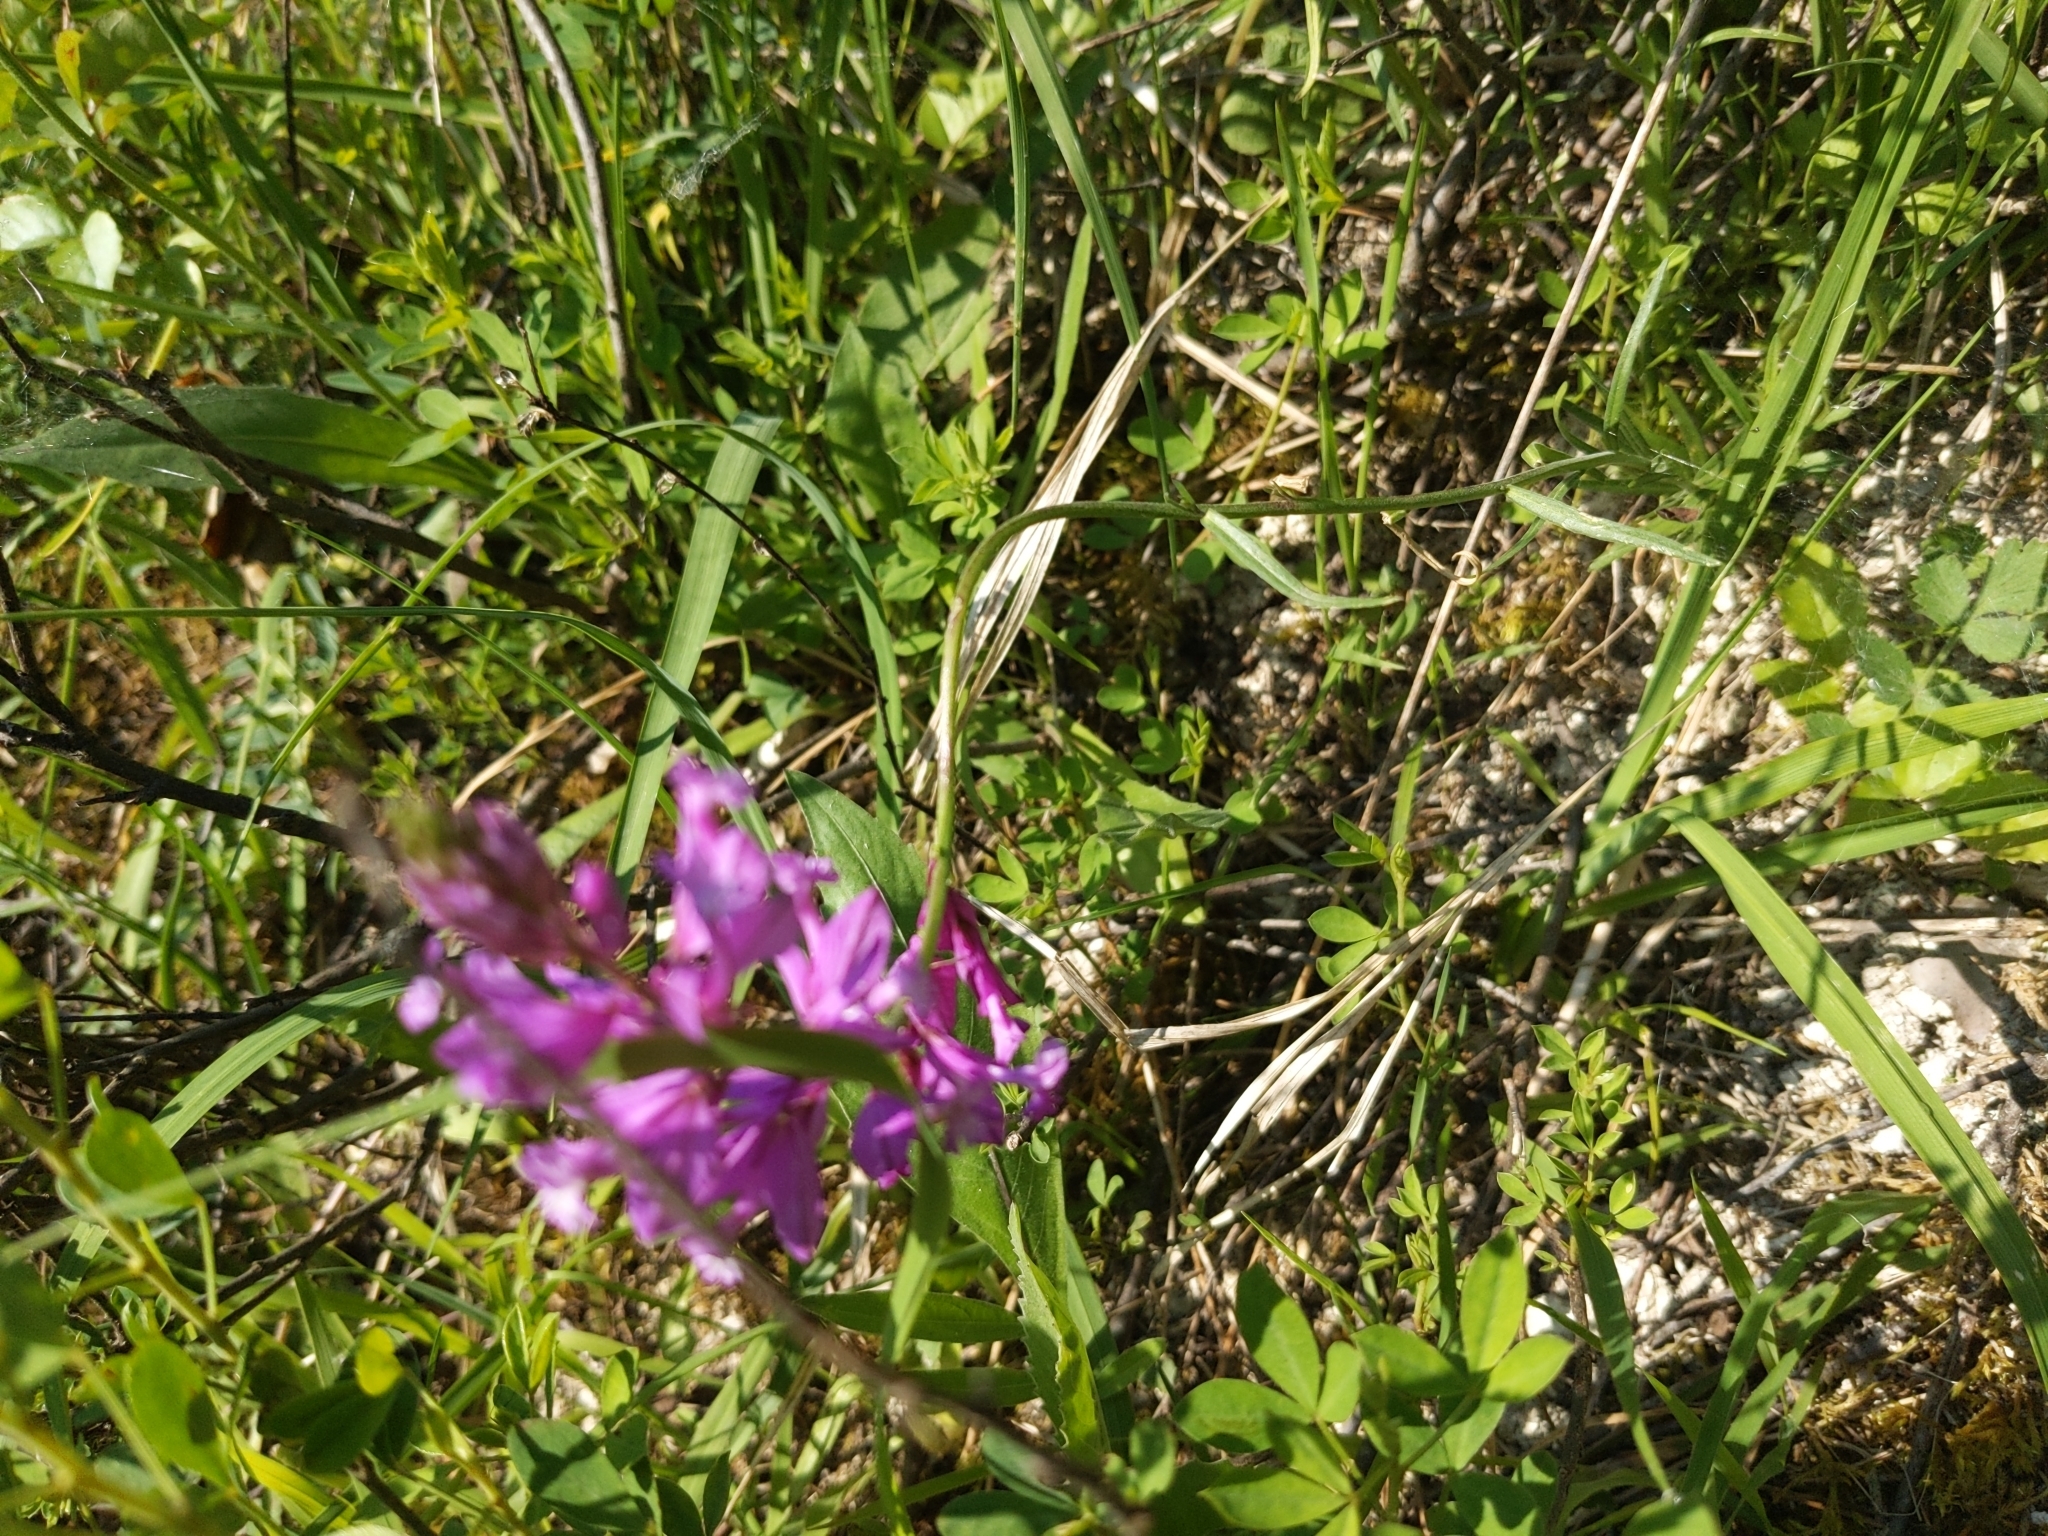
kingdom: Plantae
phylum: Tracheophyta
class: Magnoliopsida
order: Fabales
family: Polygalaceae
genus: Polygala
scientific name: Polygala major
